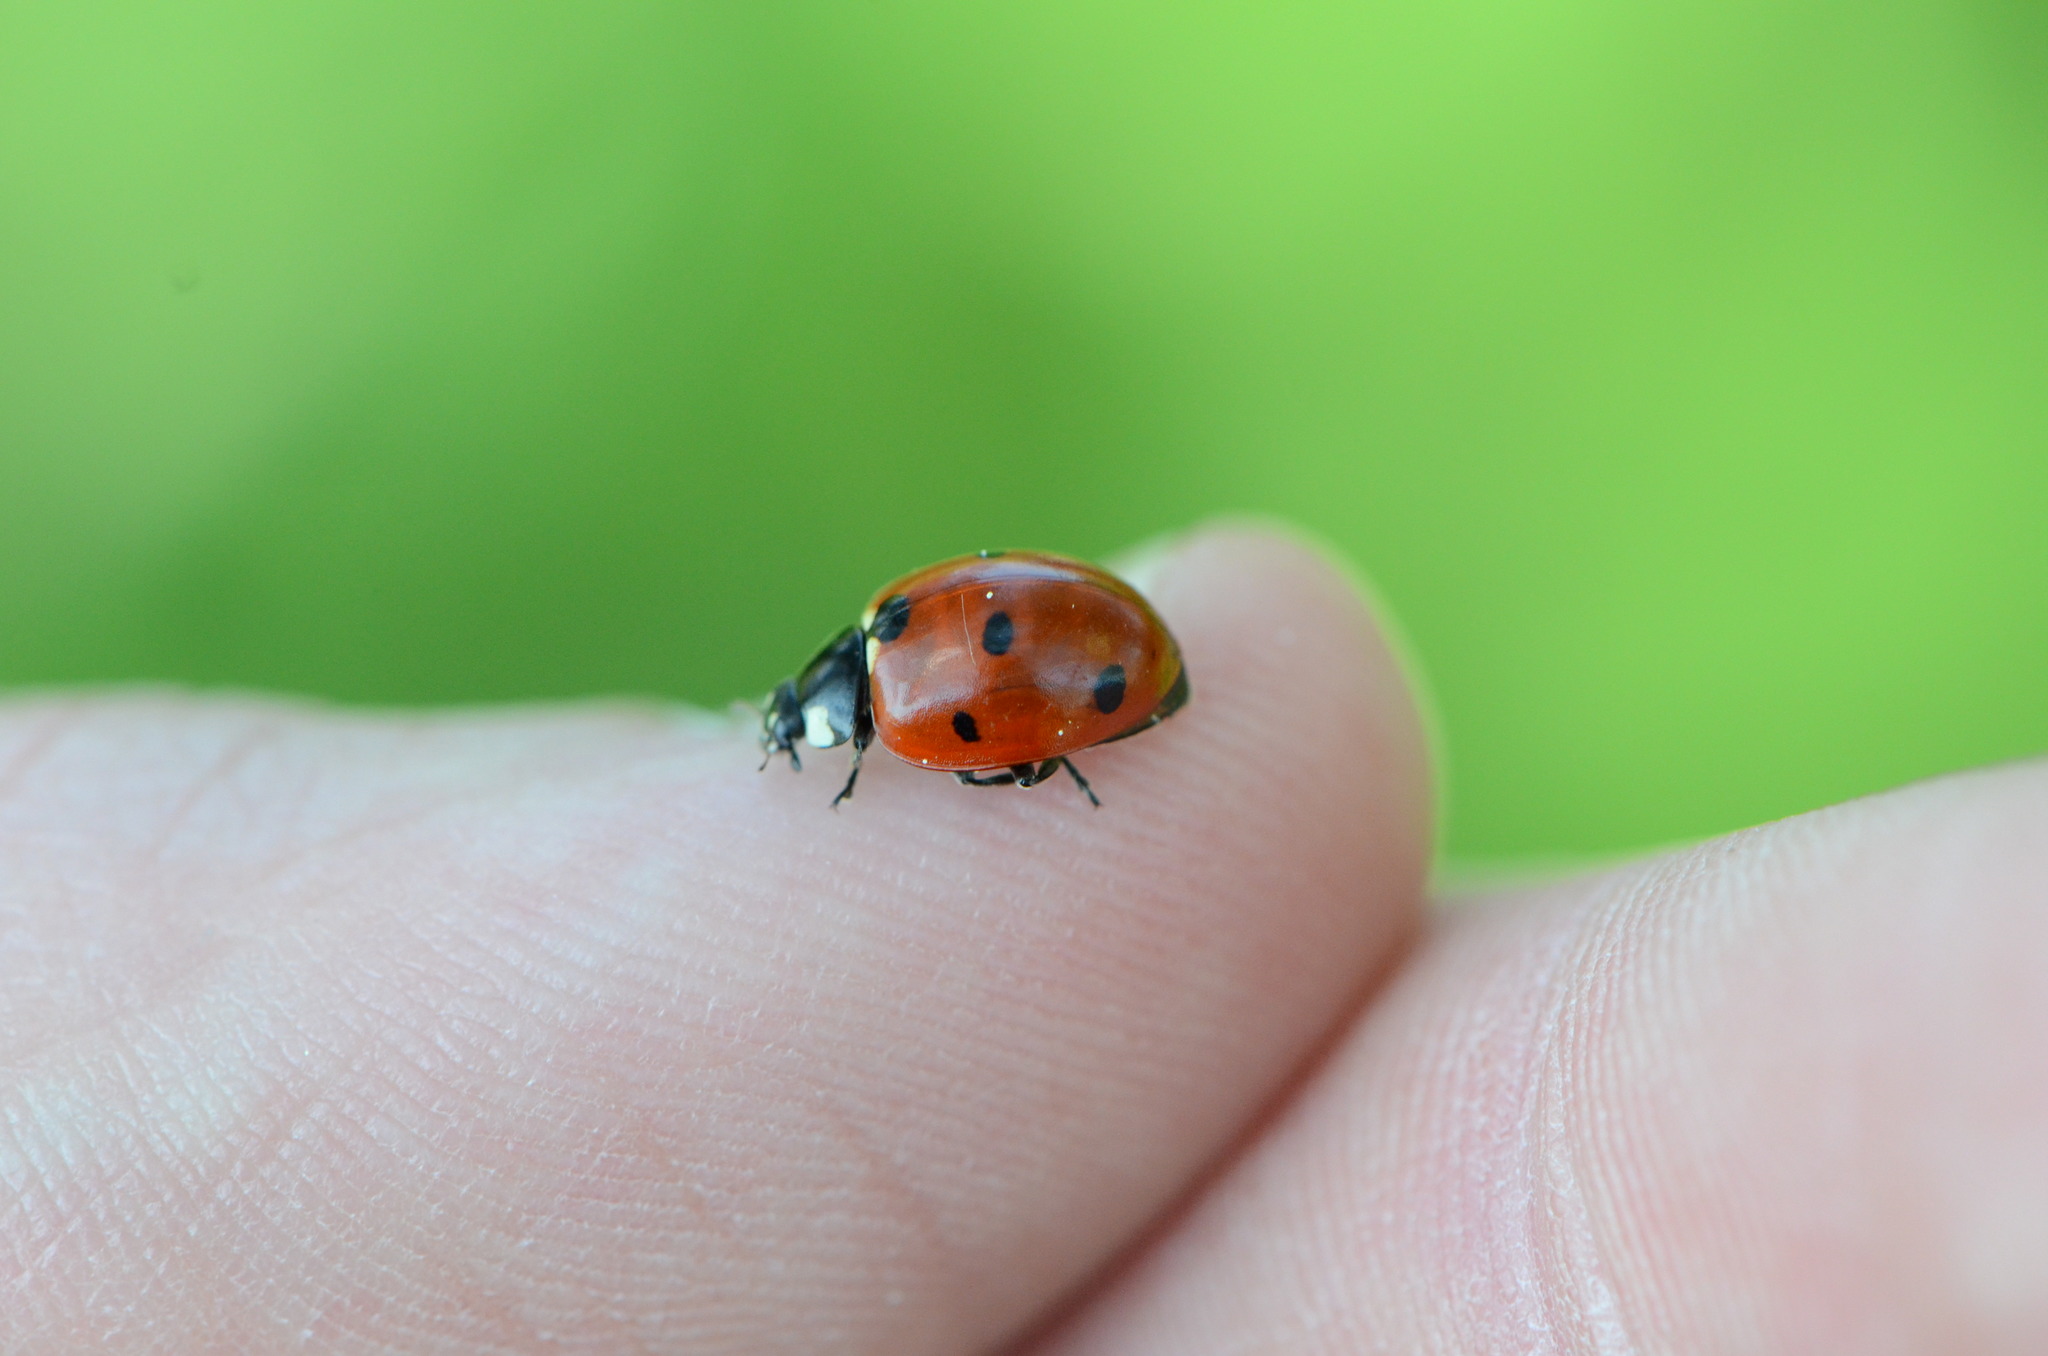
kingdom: Animalia
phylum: Arthropoda
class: Insecta
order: Coleoptera
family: Coccinellidae
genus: Coccinella
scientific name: Coccinella septempunctata
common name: Sevenspotted lady beetle
